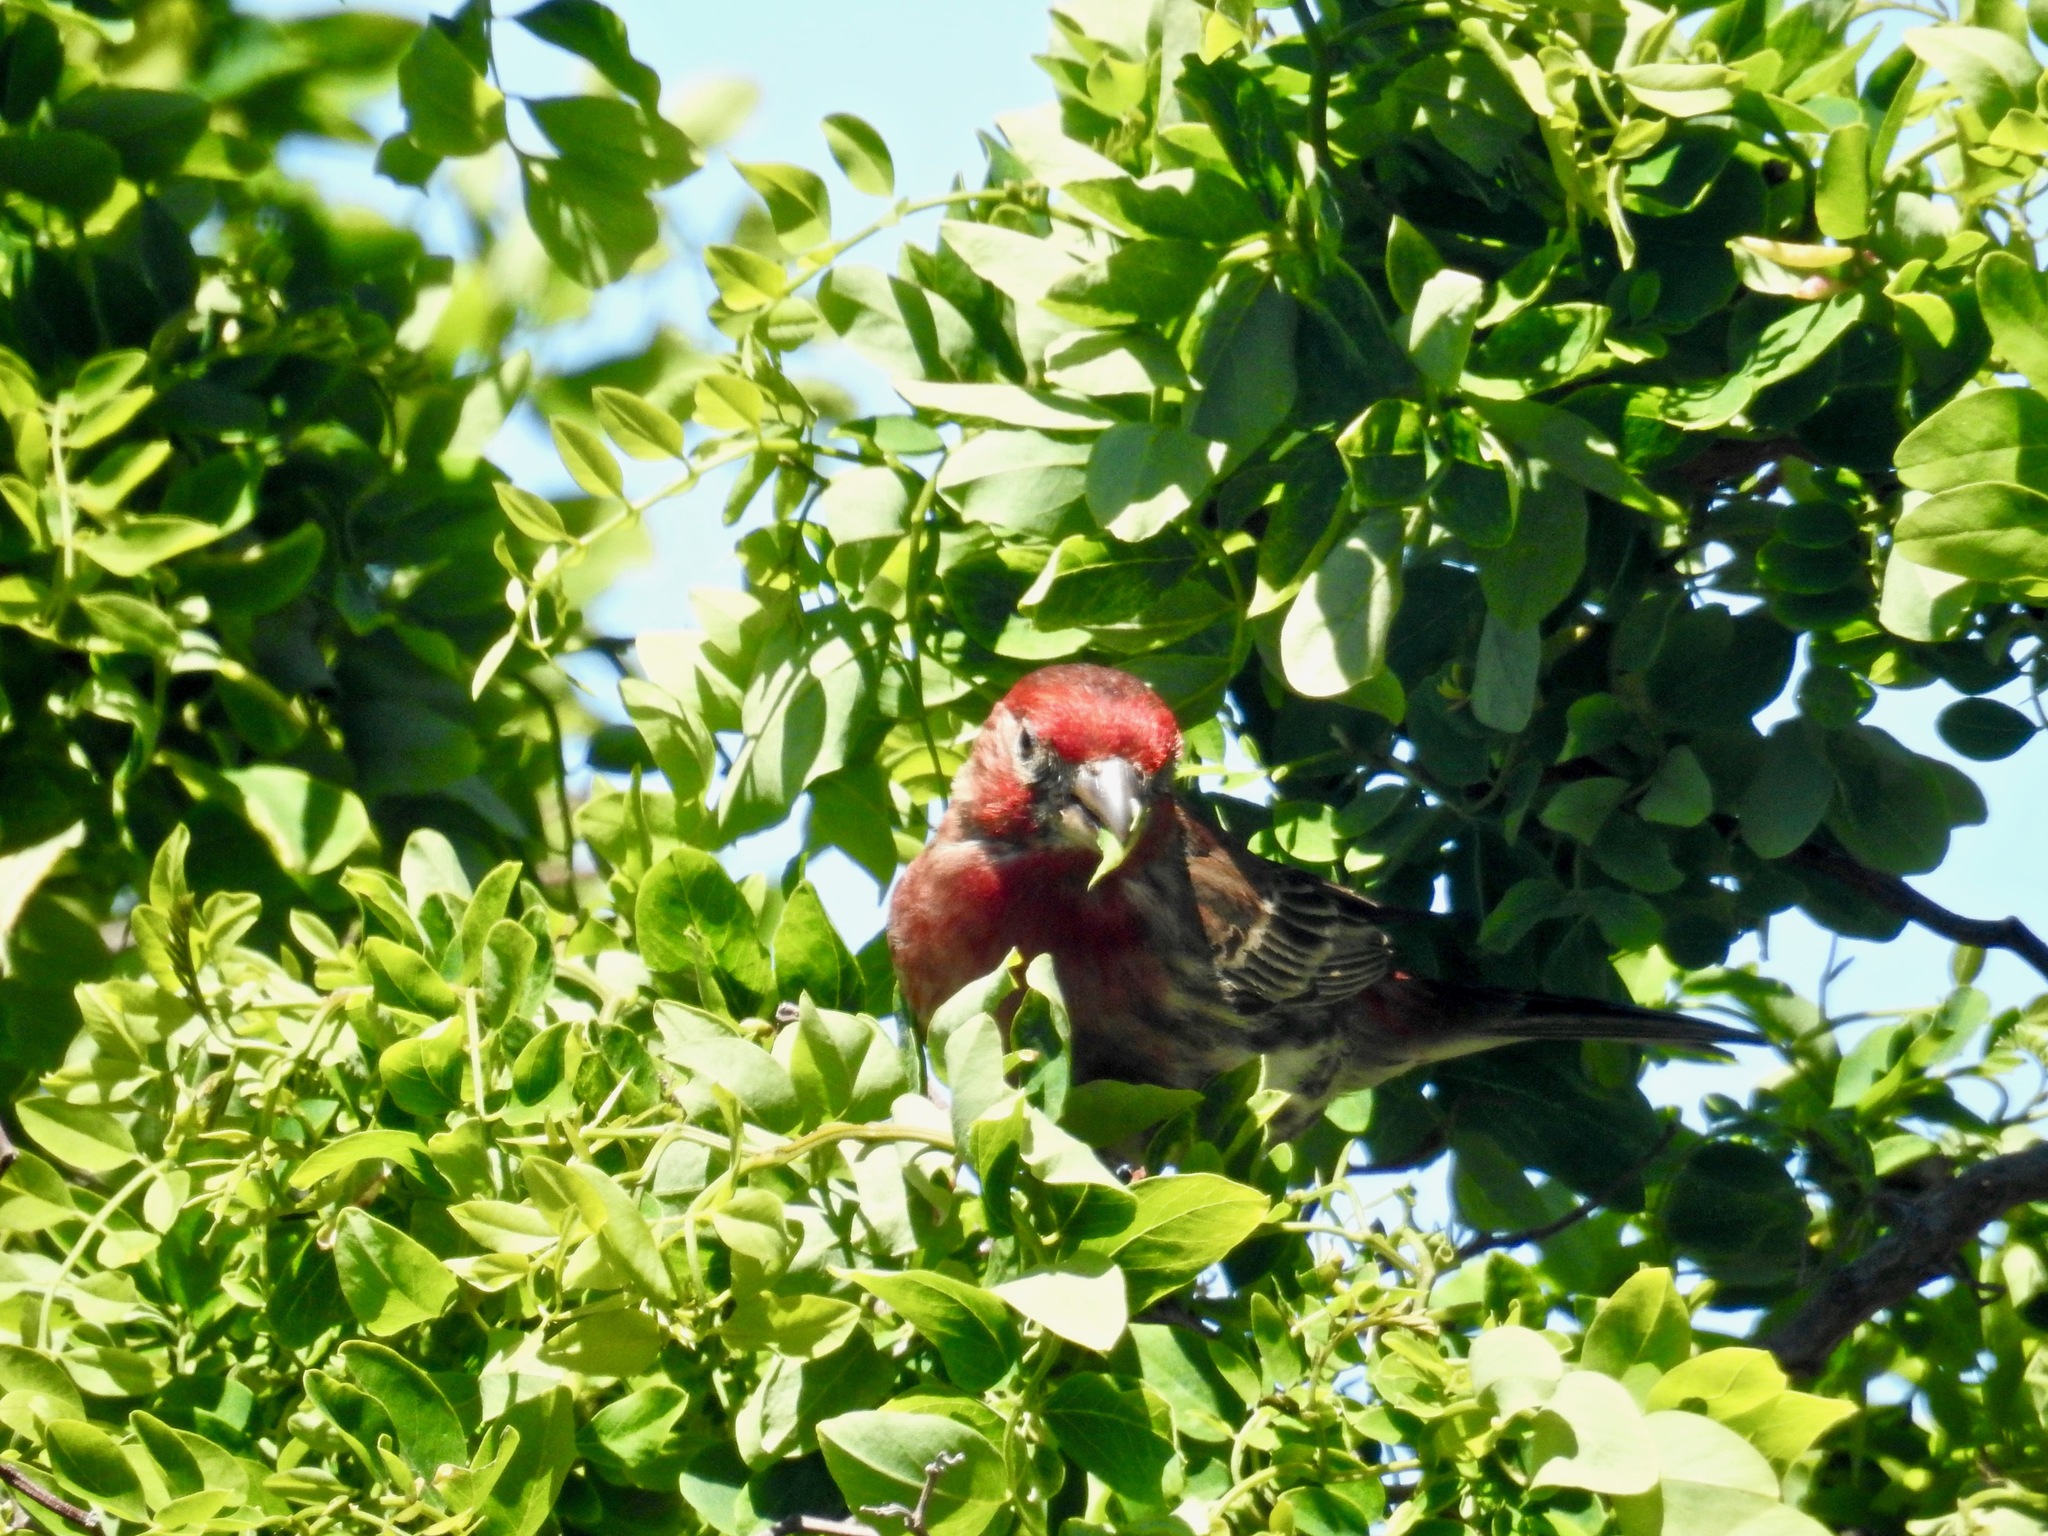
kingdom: Animalia
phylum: Chordata
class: Aves
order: Passeriformes
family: Fringillidae
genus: Haemorhous
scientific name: Haemorhous mexicanus
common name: House finch
